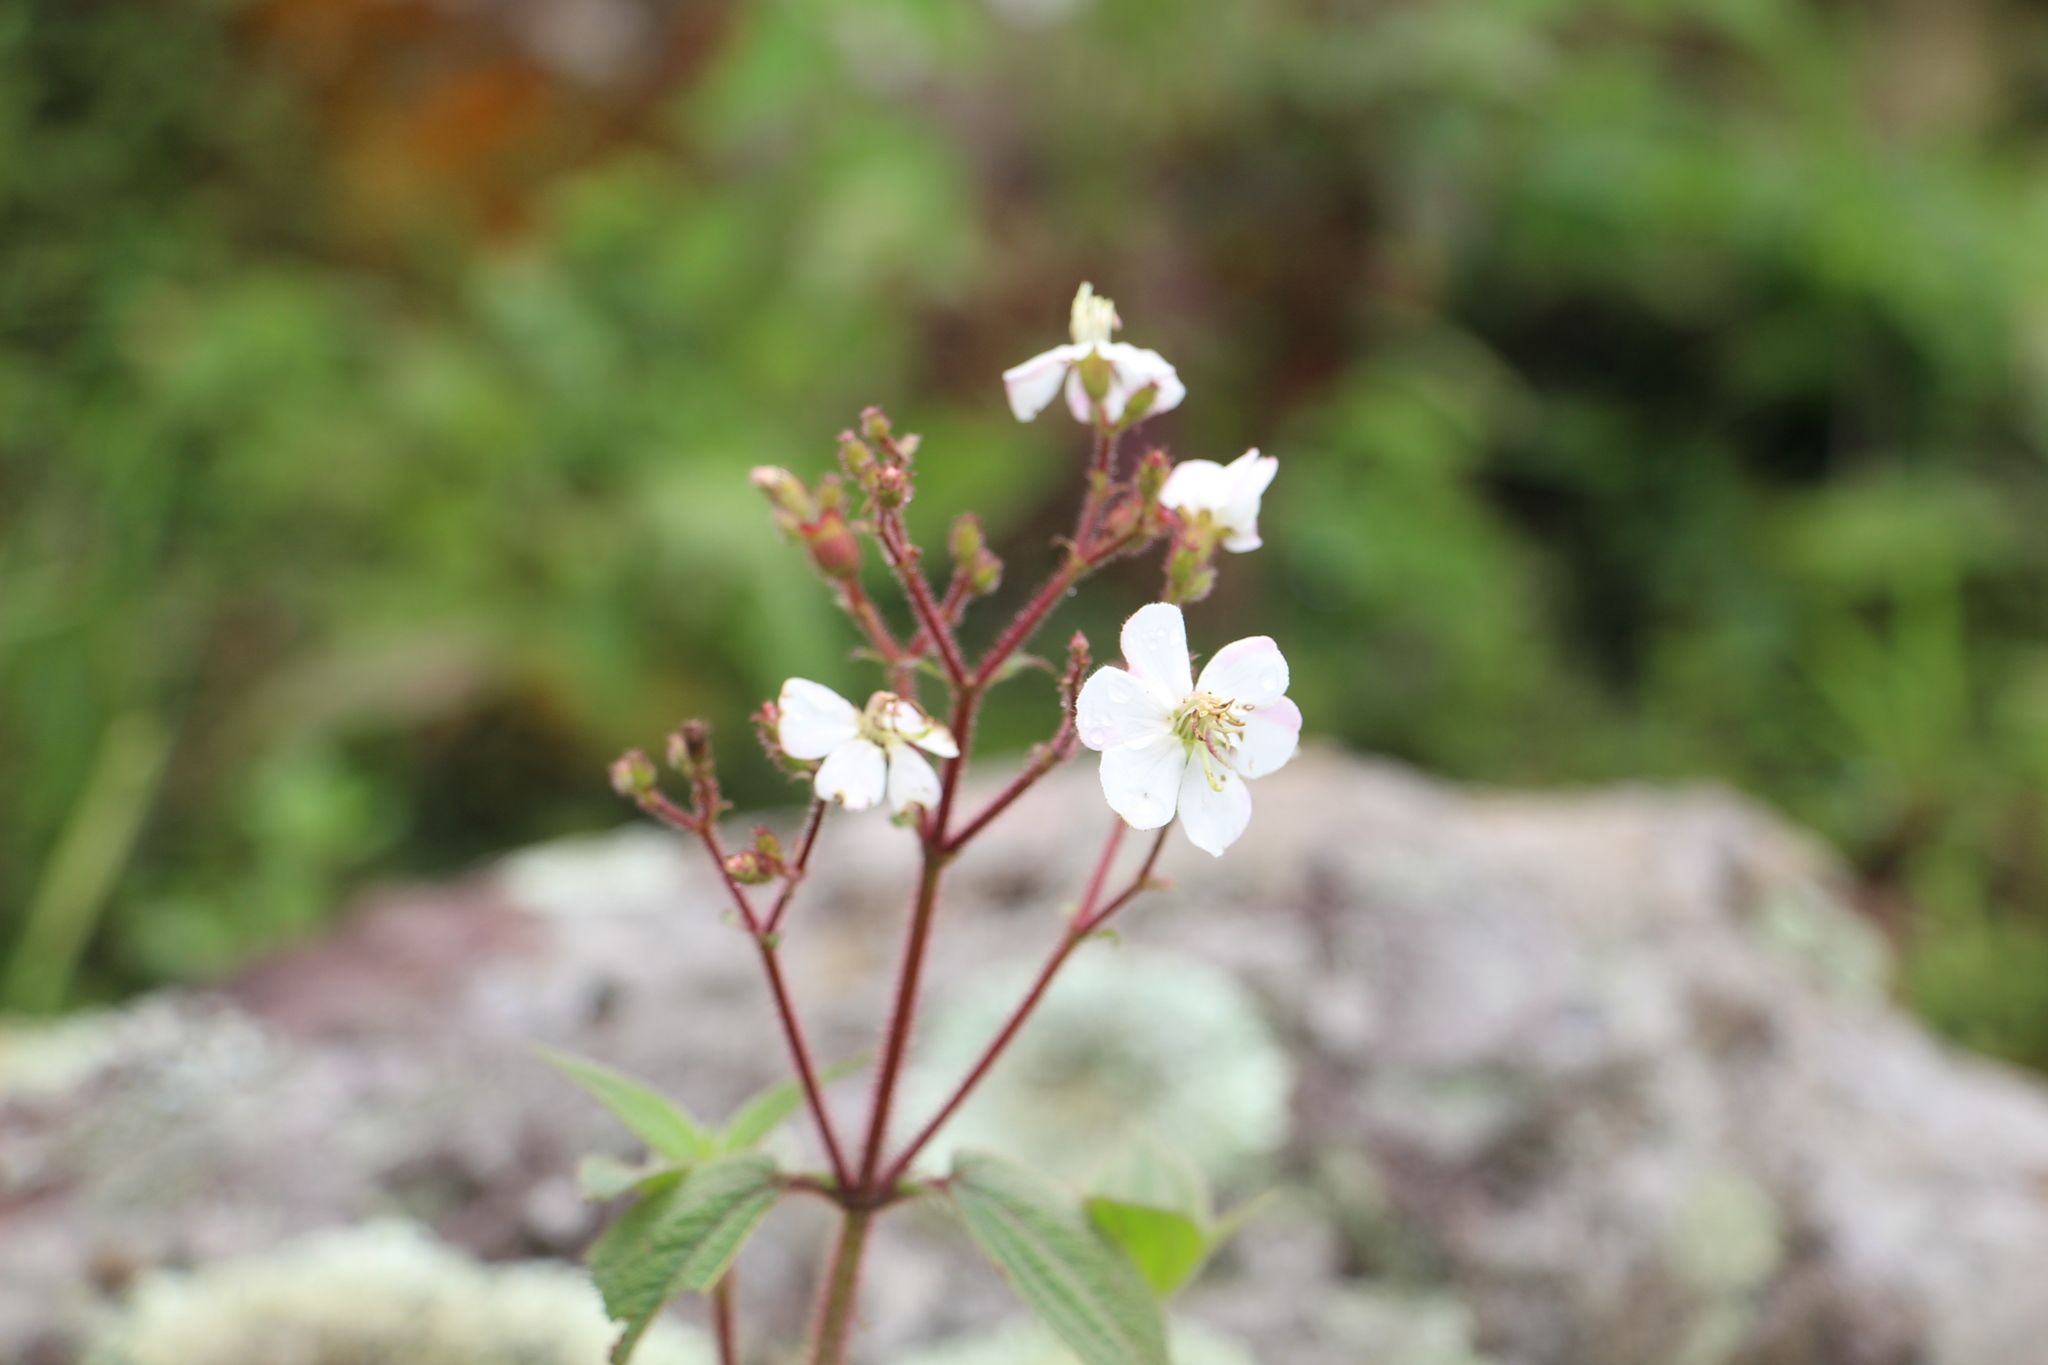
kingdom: Plantae
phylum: Tracheophyta
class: Magnoliopsida
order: Myrtales
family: Melastomataceae
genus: Chaetogastra
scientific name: Chaetogastra ciliaris
